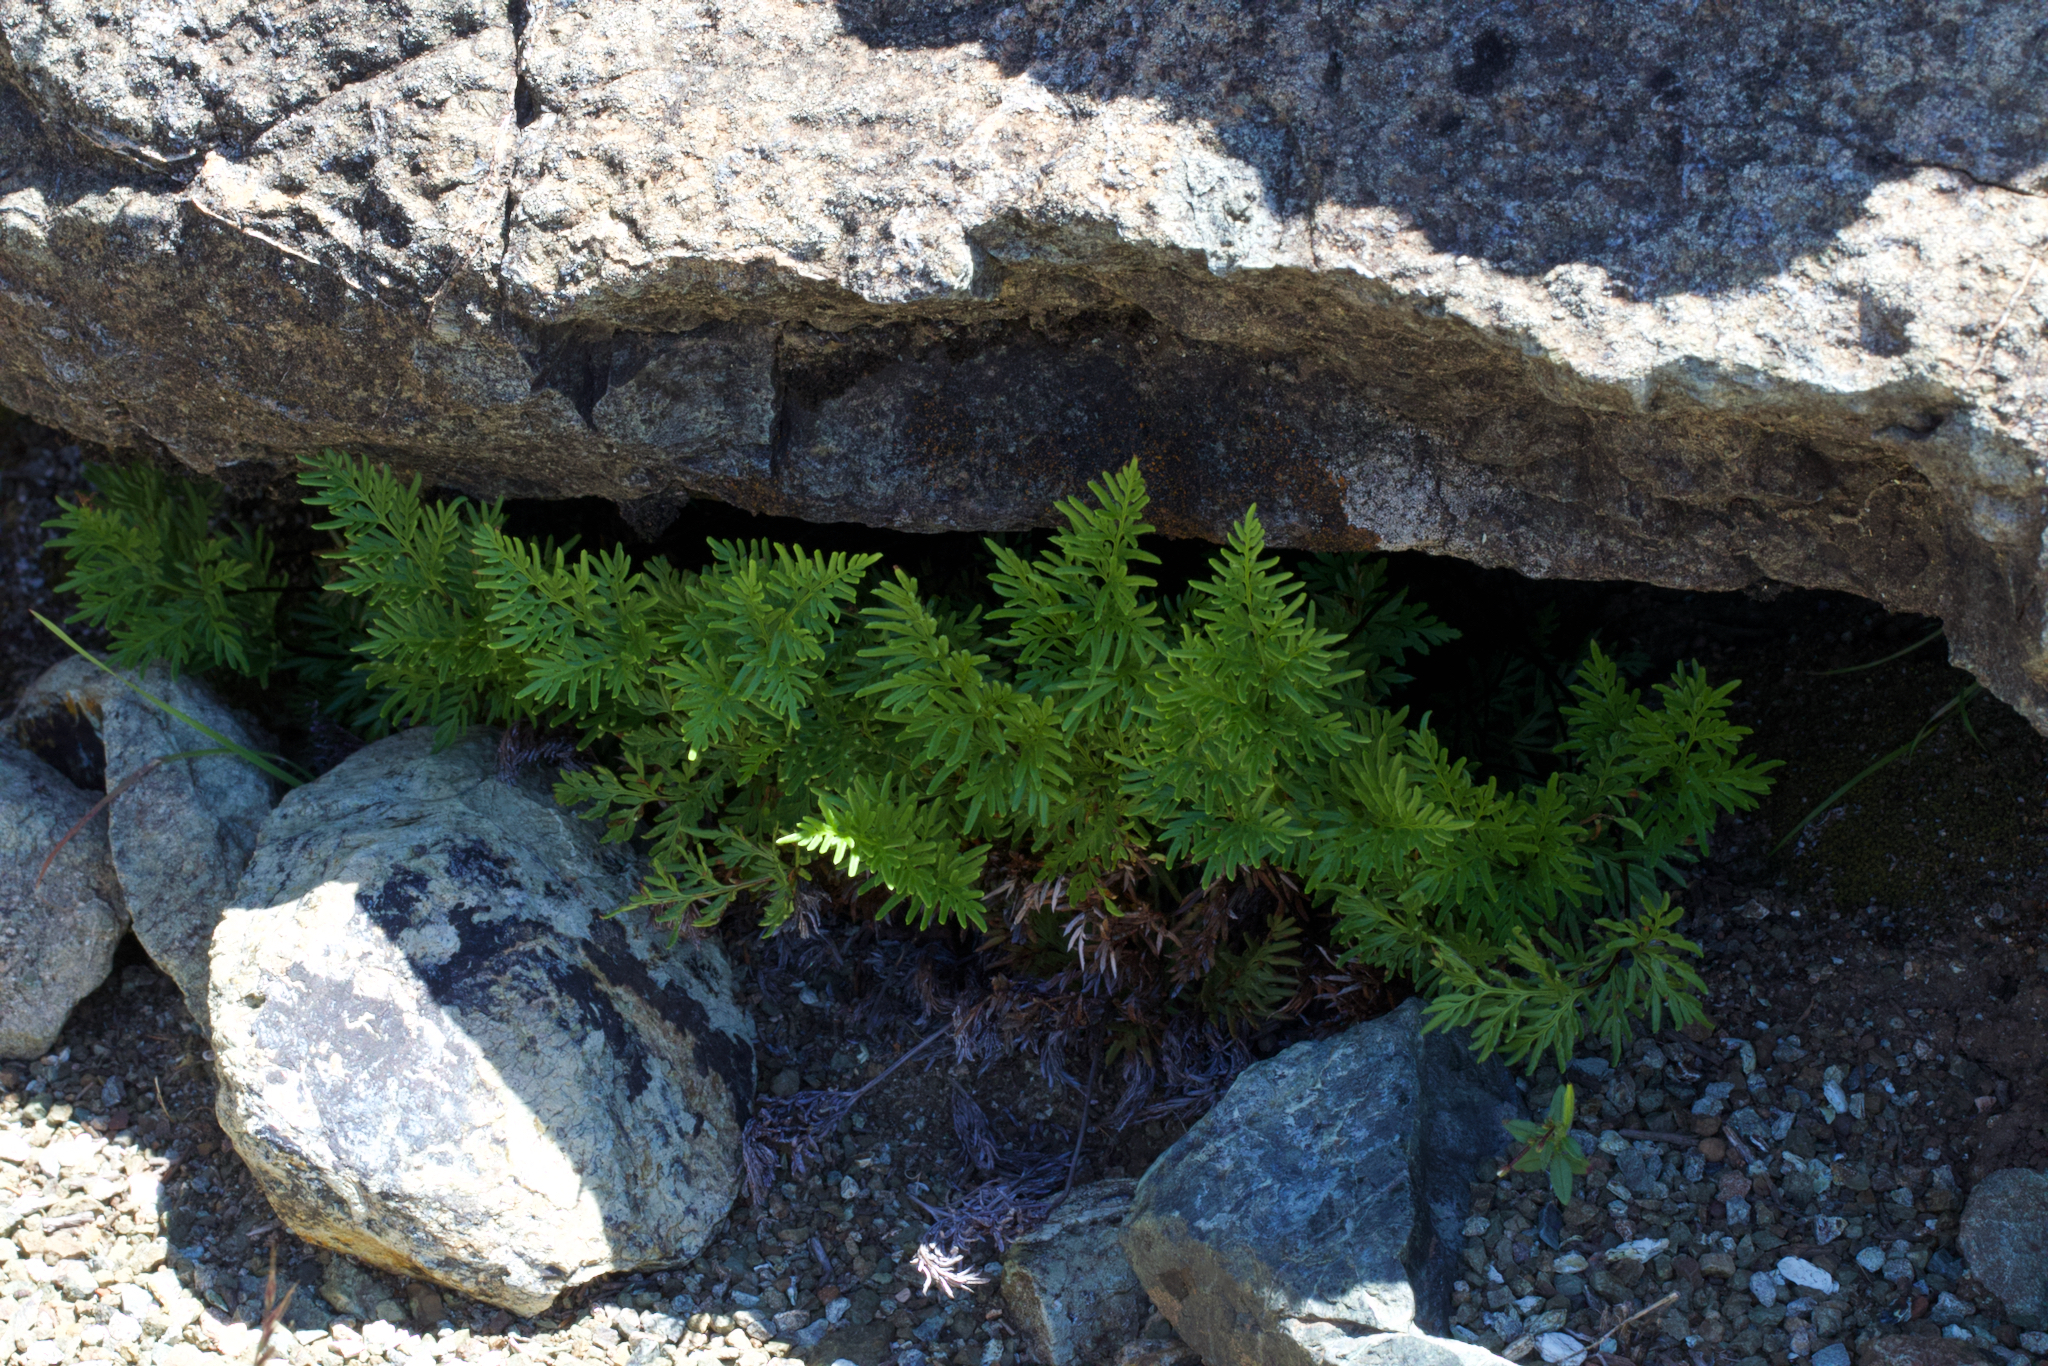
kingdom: Plantae
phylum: Tracheophyta
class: Polypodiopsida
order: Polypodiales
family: Pteridaceae
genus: Aspidotis
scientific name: Aspidotis densa
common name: Indian's dream
